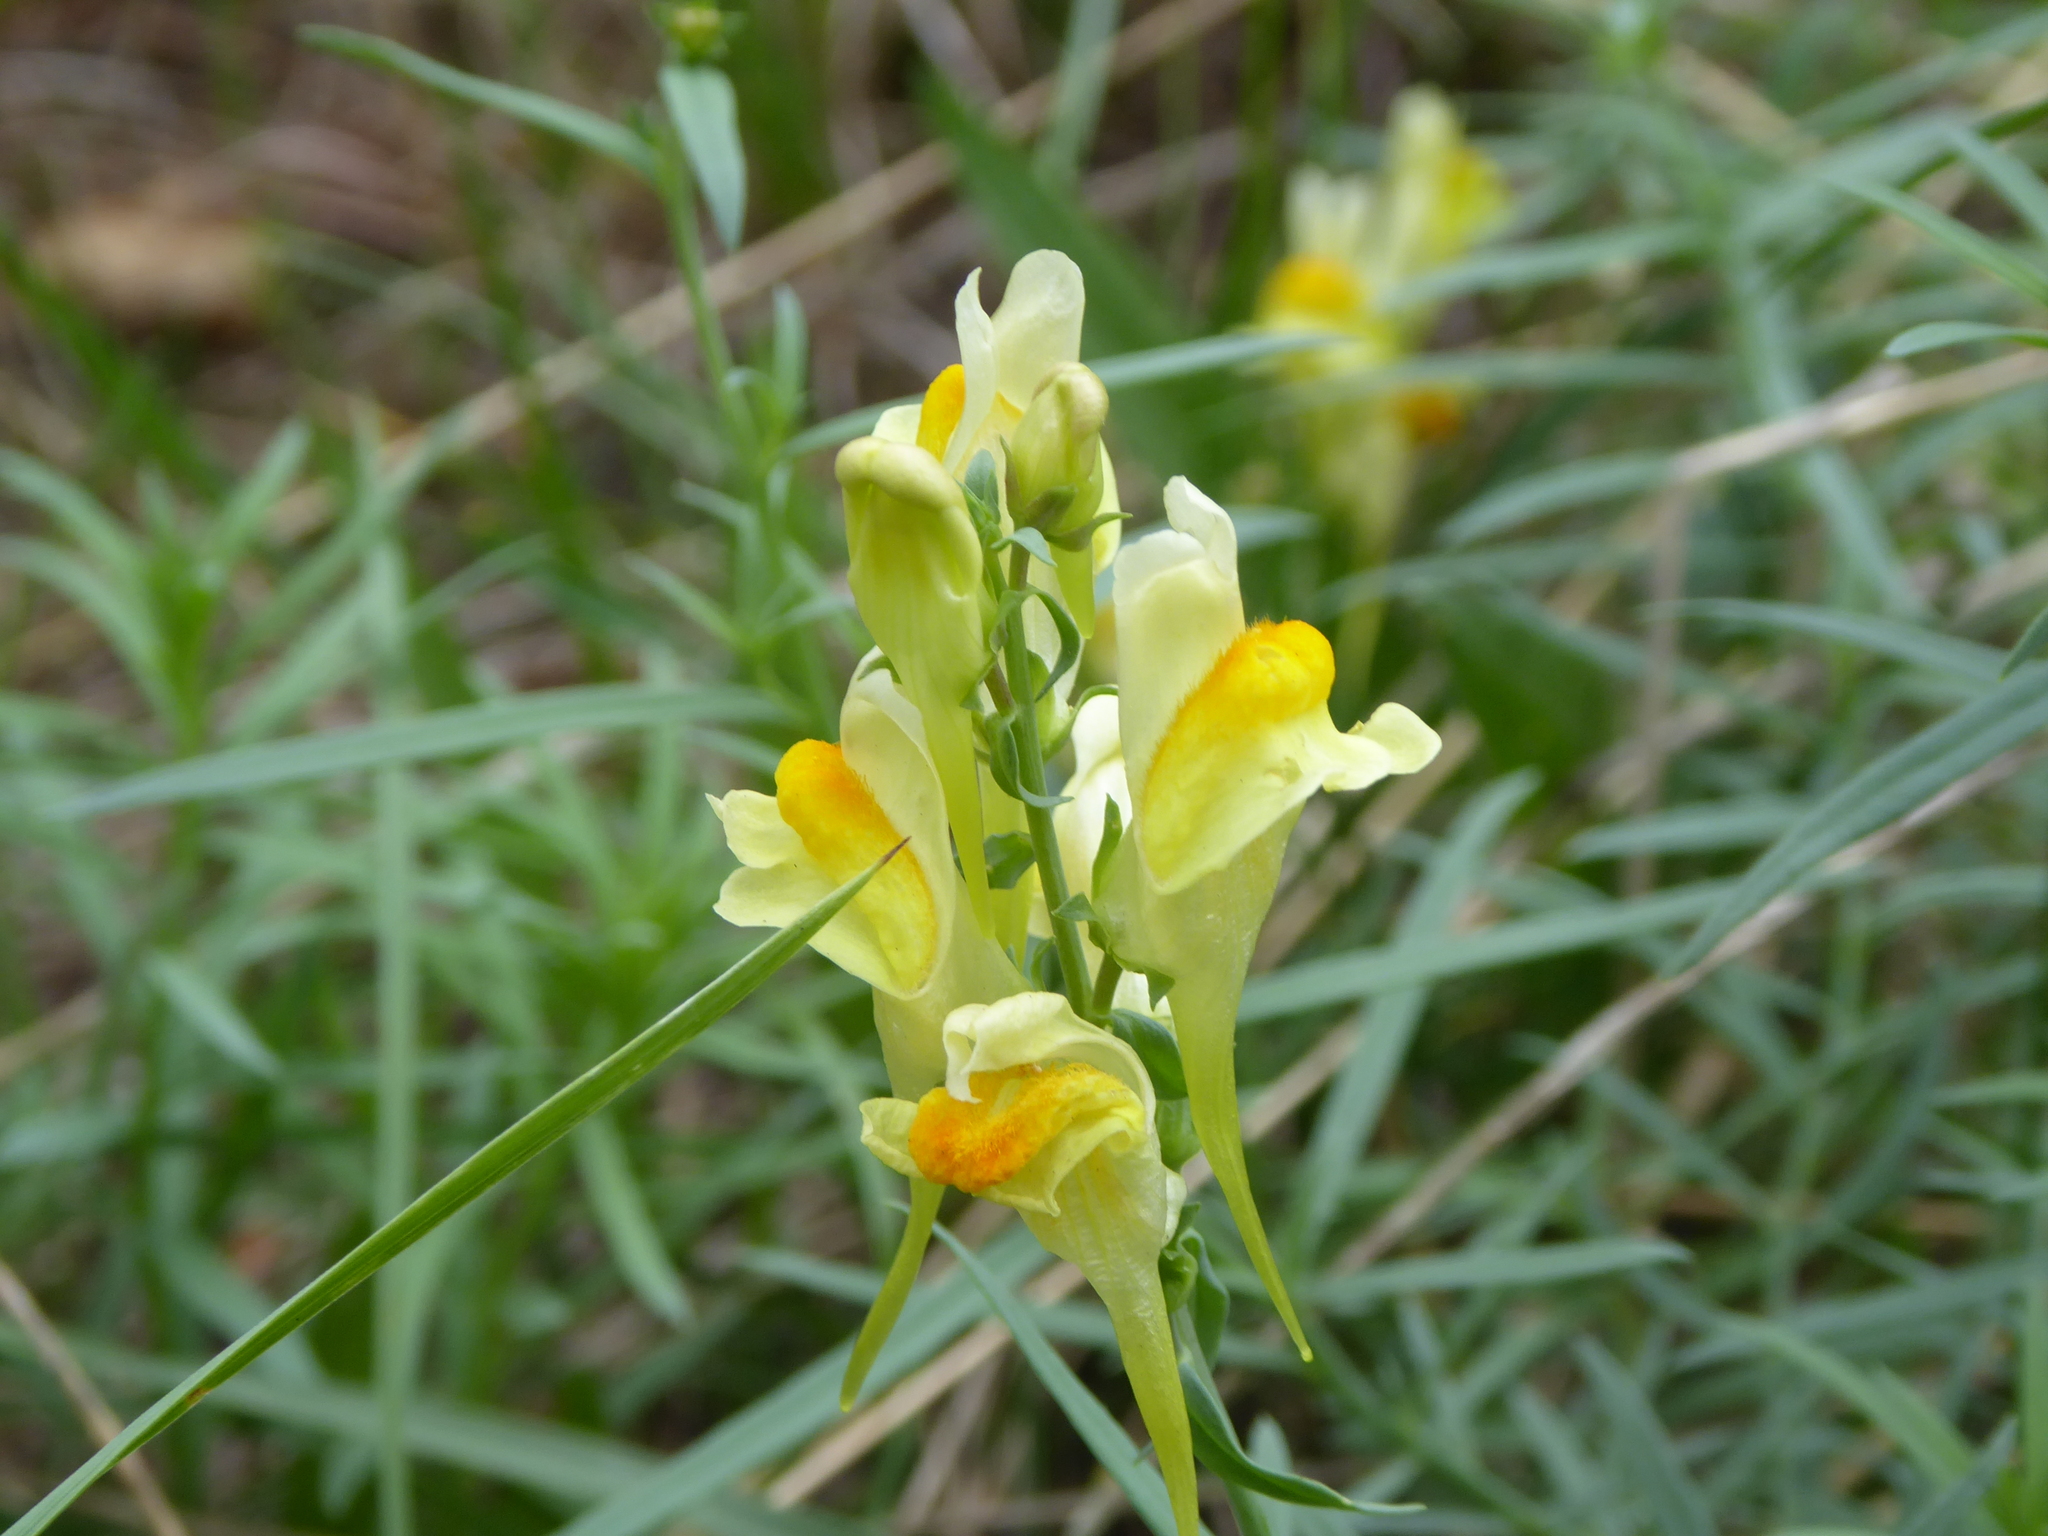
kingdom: Plantae
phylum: Tracheophyta
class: Magnoliopsida
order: Lamiales
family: Plantaginaceae
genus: Linaria
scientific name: Linaria vulgaris
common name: Butter and eggs
